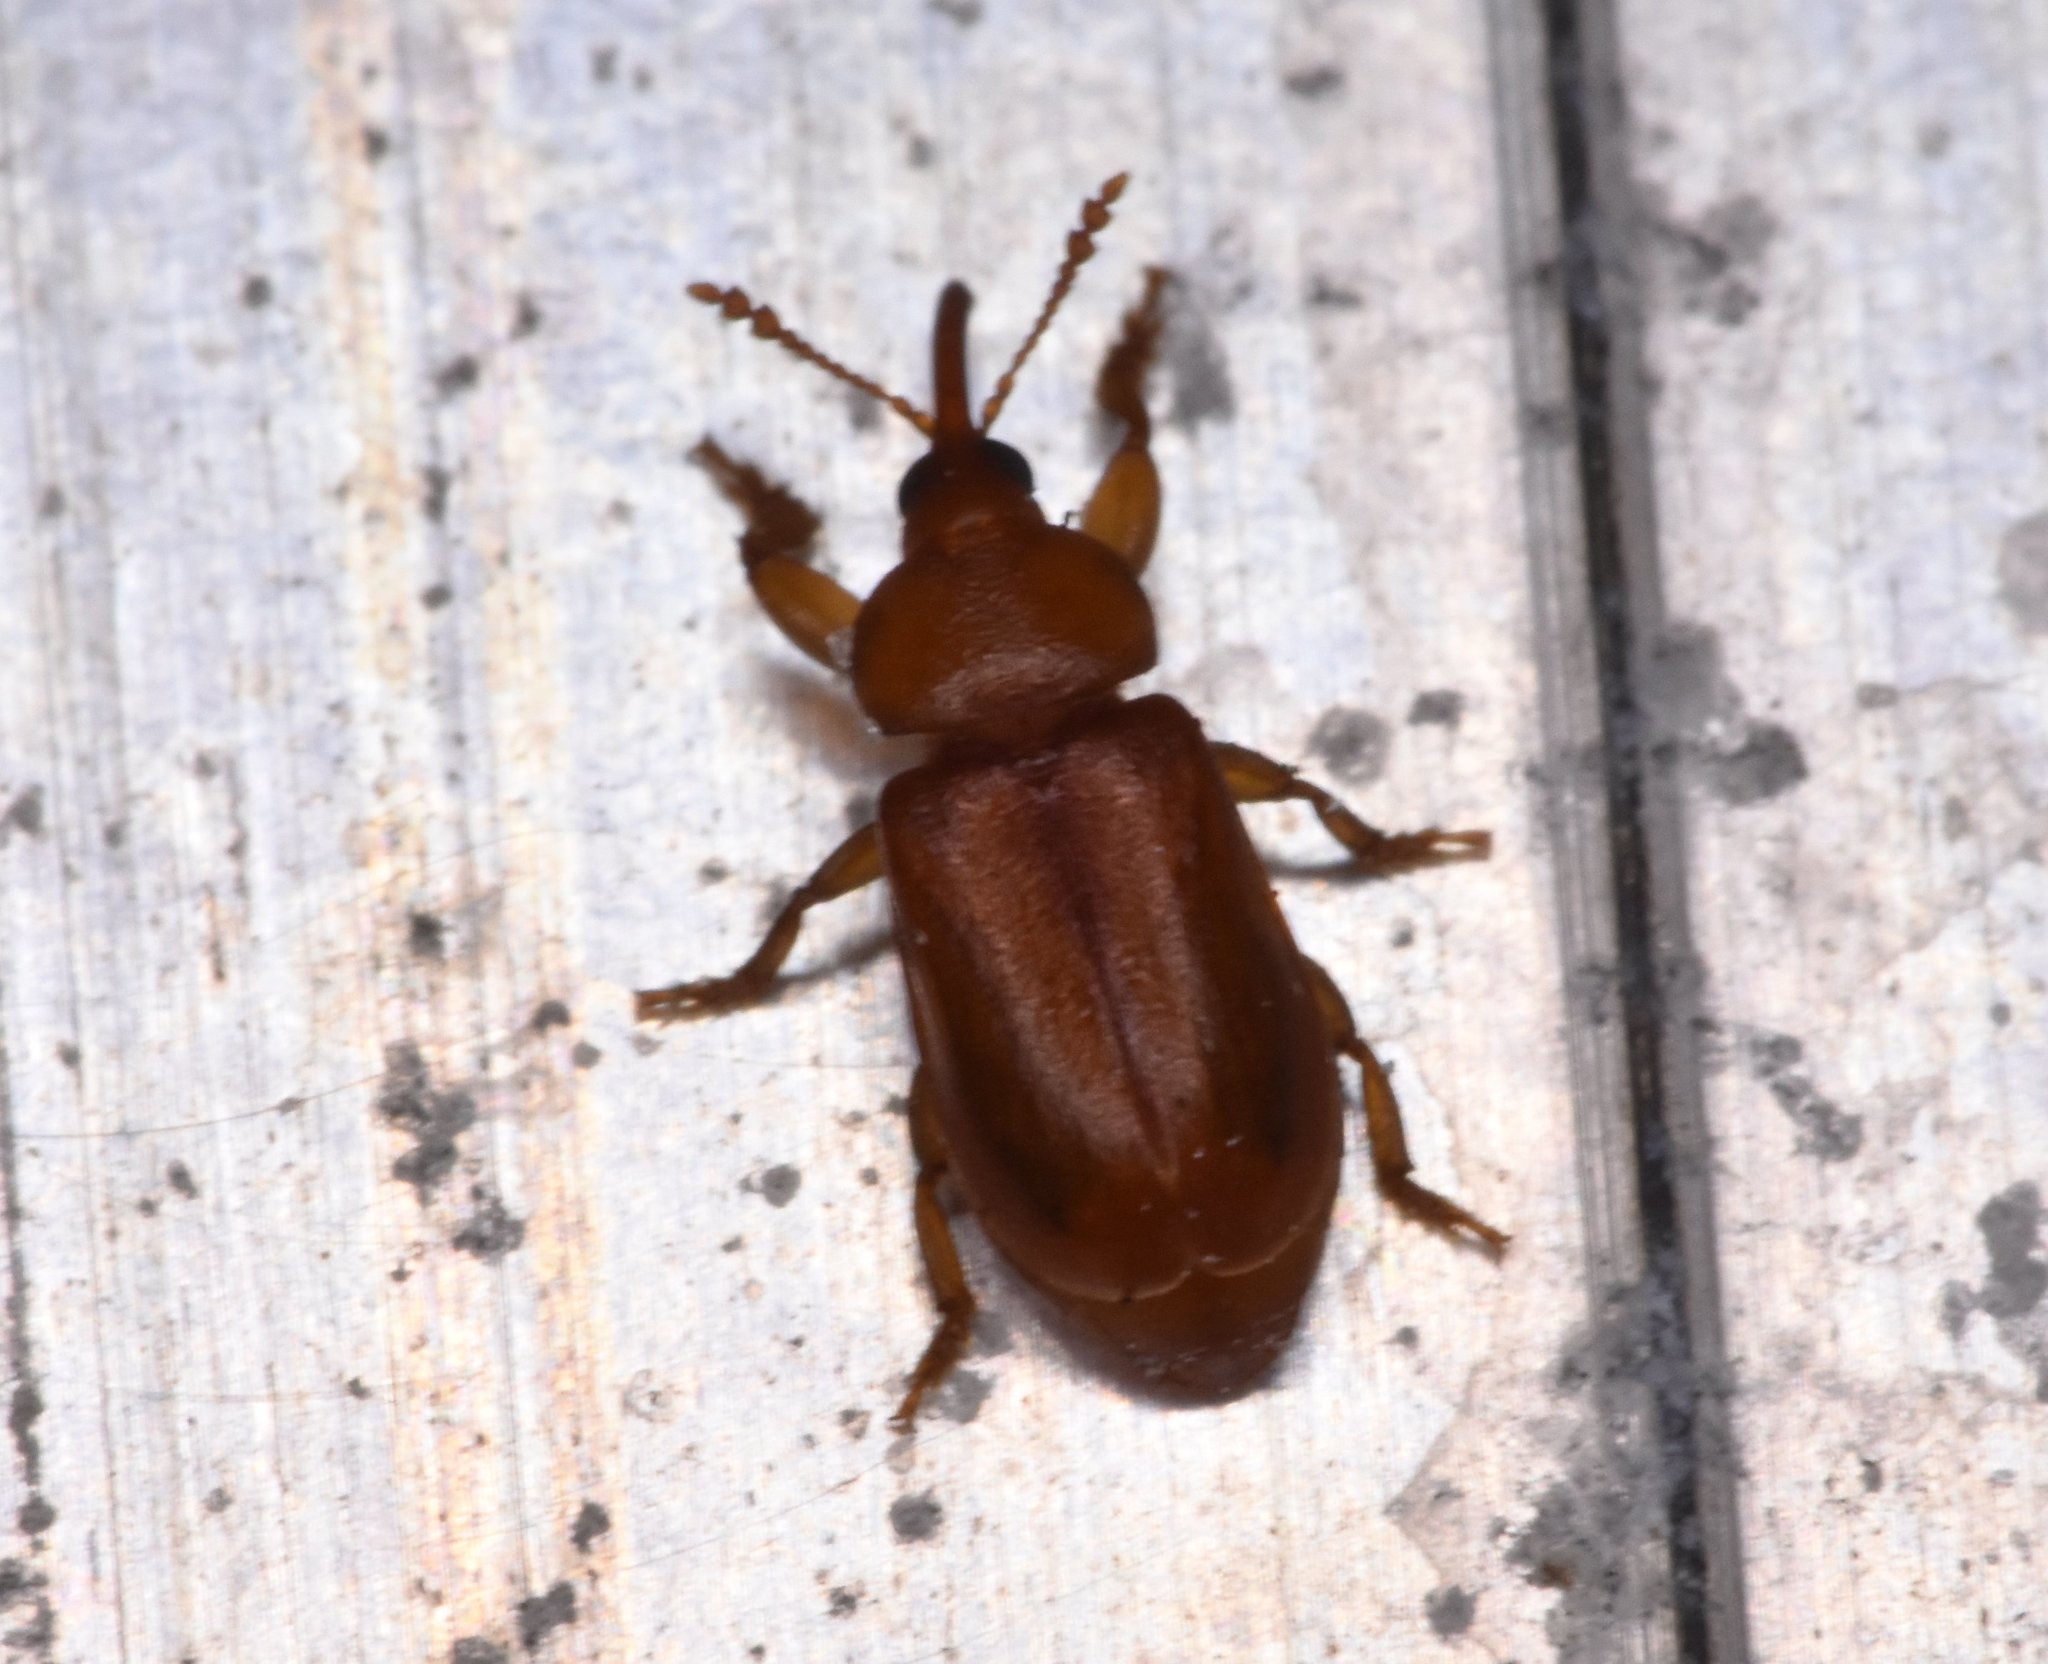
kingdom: Animalia
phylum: Arthropoda
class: Insecta
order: Coleoptera
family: Belidae
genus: Rhopalotria
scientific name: Rhopalotria furfuracea
